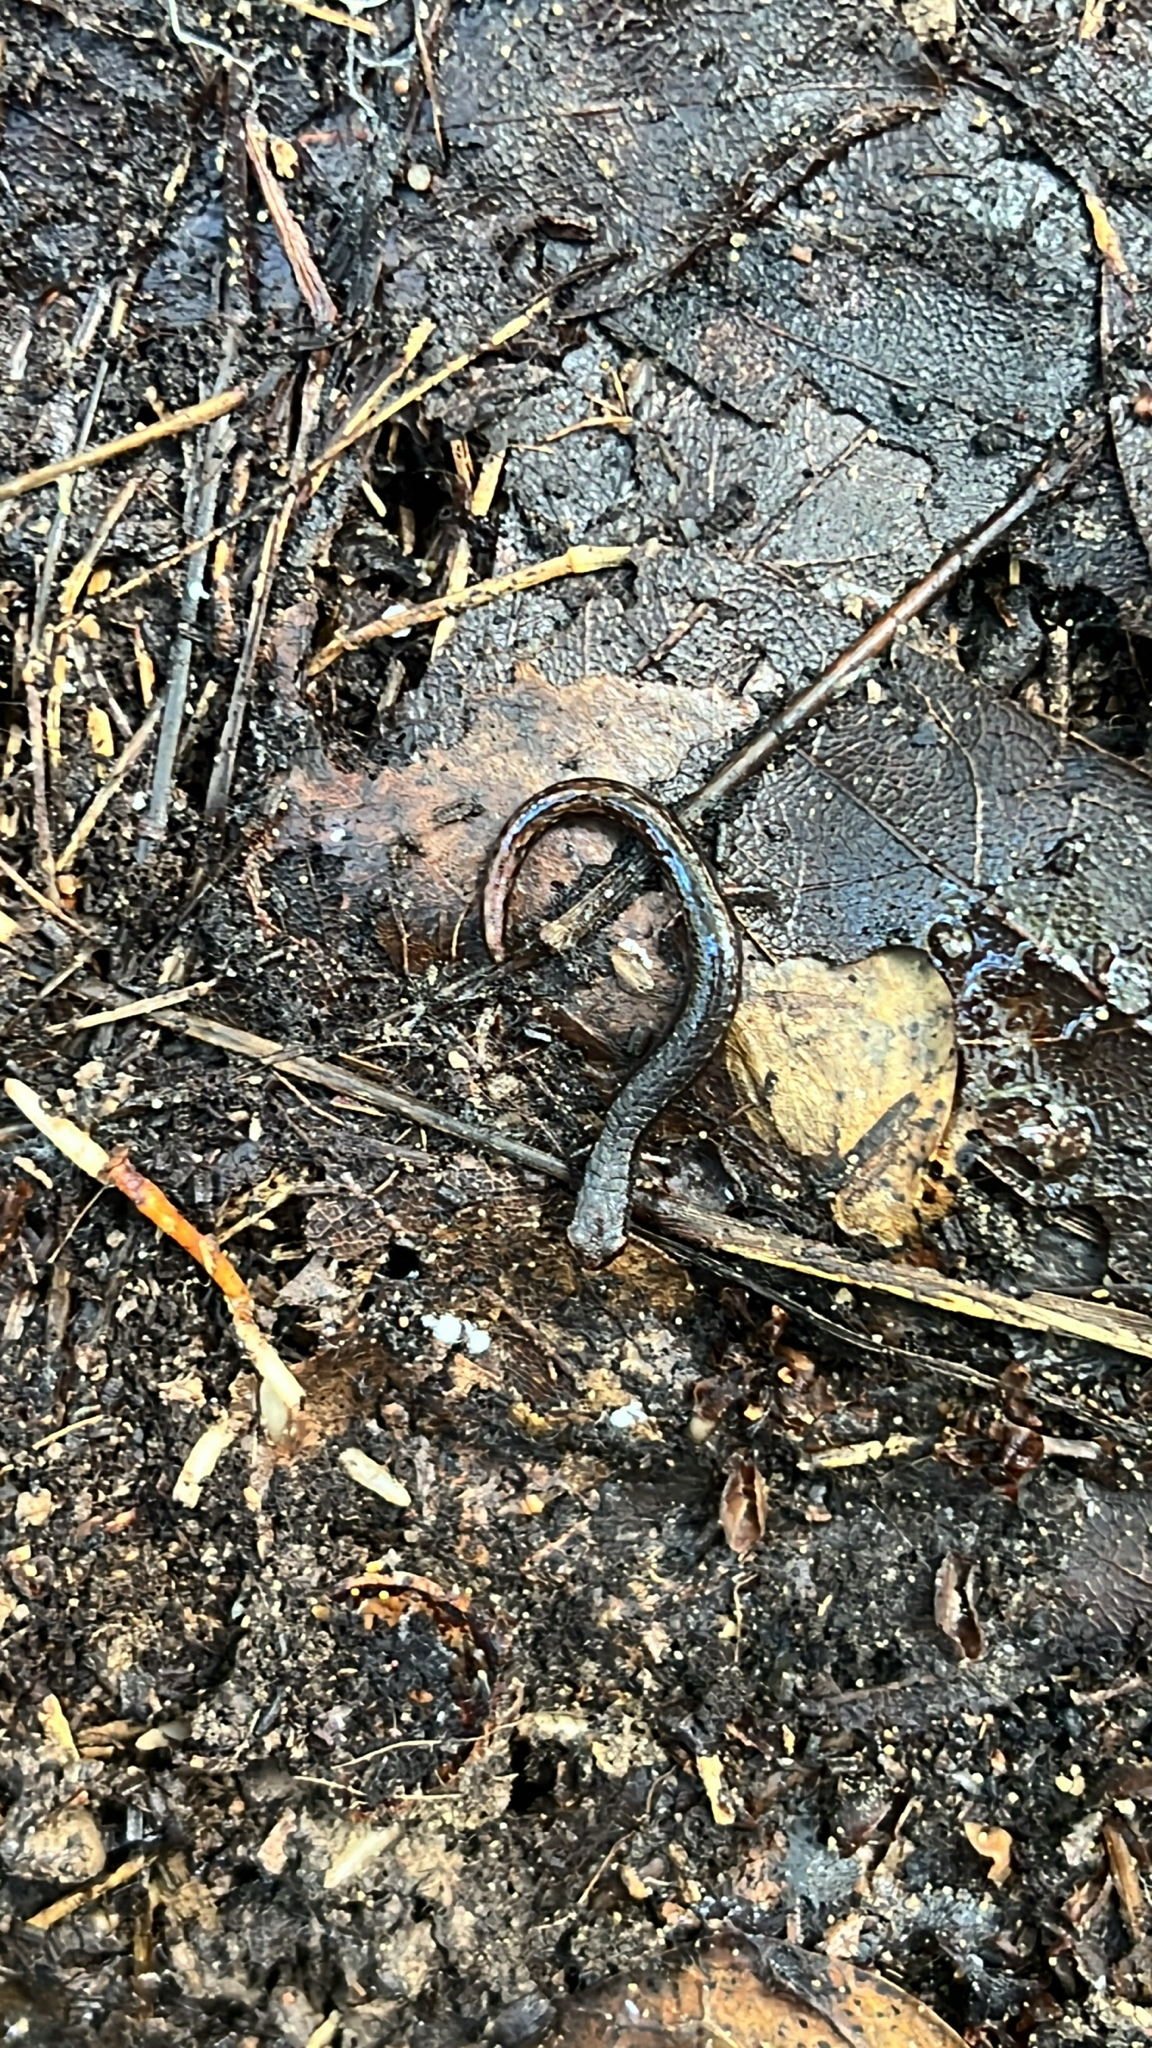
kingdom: Animalia
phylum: Chordata
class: Amphibia
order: Caudata
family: Plethodontidae
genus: Batrachoseps
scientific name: Batrachoseps attenuatus
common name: California slender salamander
